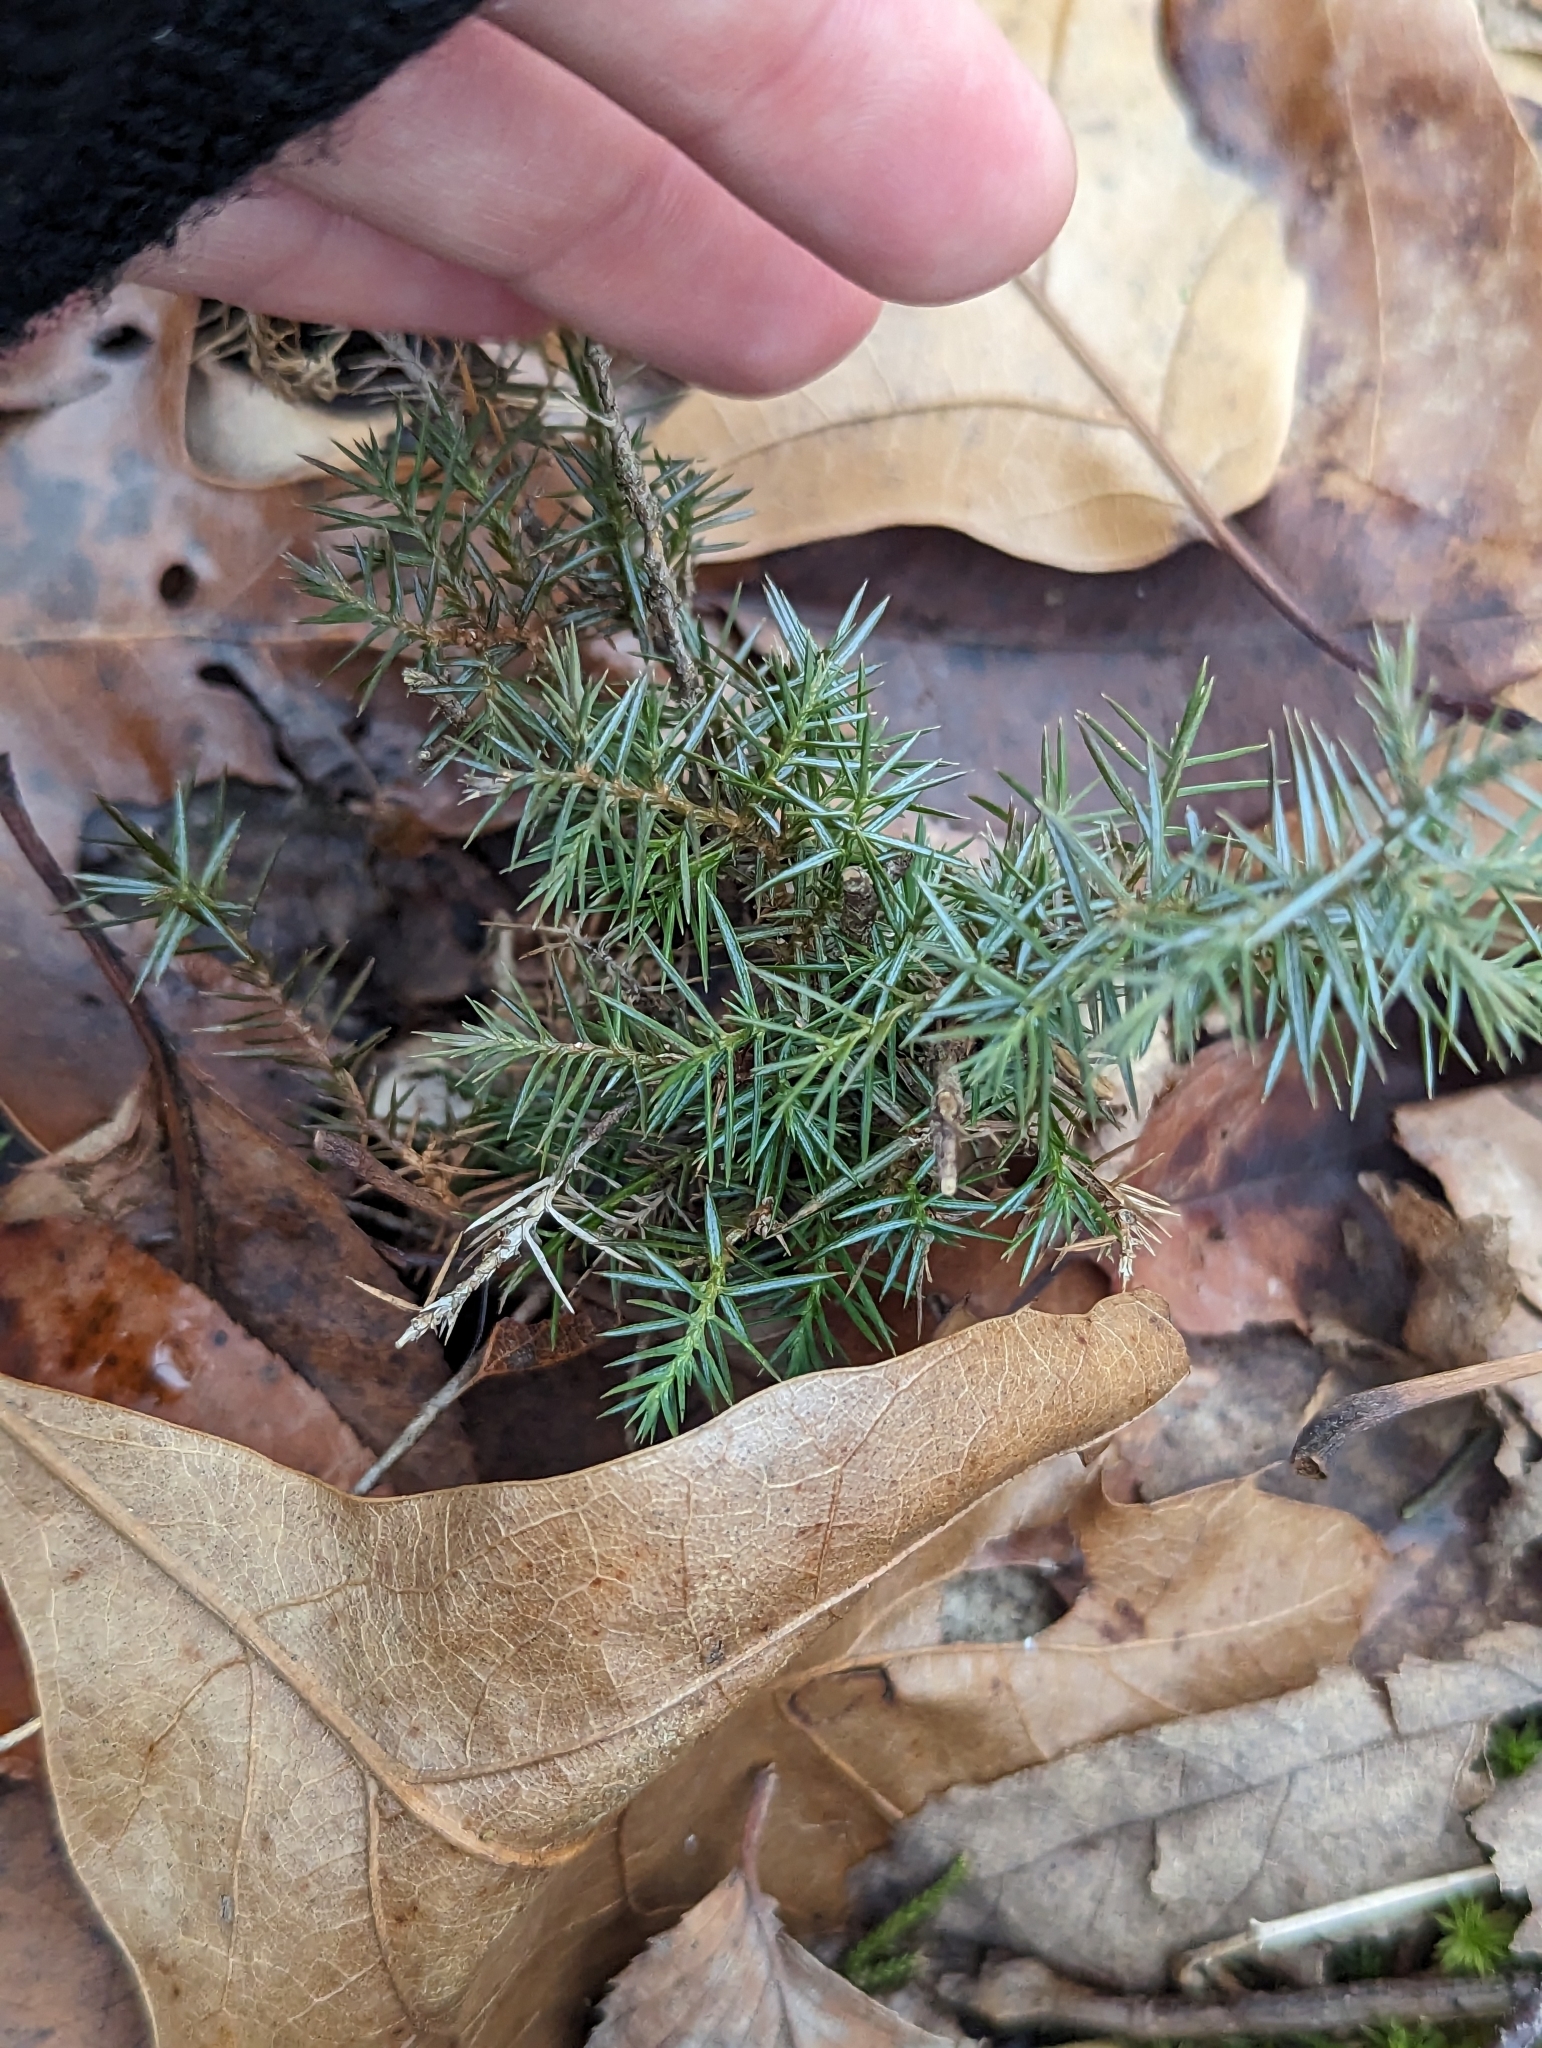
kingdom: Plantae
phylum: Tracheophyta
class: Pinopsida
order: Pinales
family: Cupressaceae
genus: Juniperus
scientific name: Juniperus virginiana
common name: Red juniper
